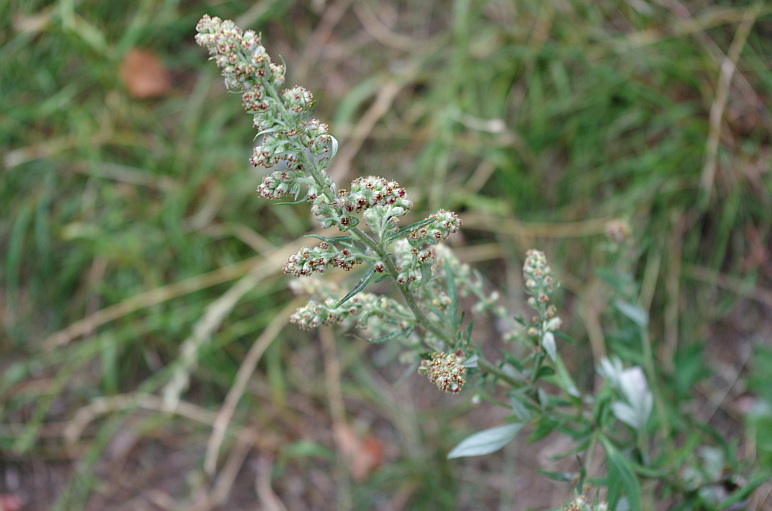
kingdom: Plantae
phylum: Tracheophyta
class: Magnoliopsida
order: Asterales
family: Asteraceae
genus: Artemisia
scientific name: Artemisia vulgaris
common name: Mugwort
